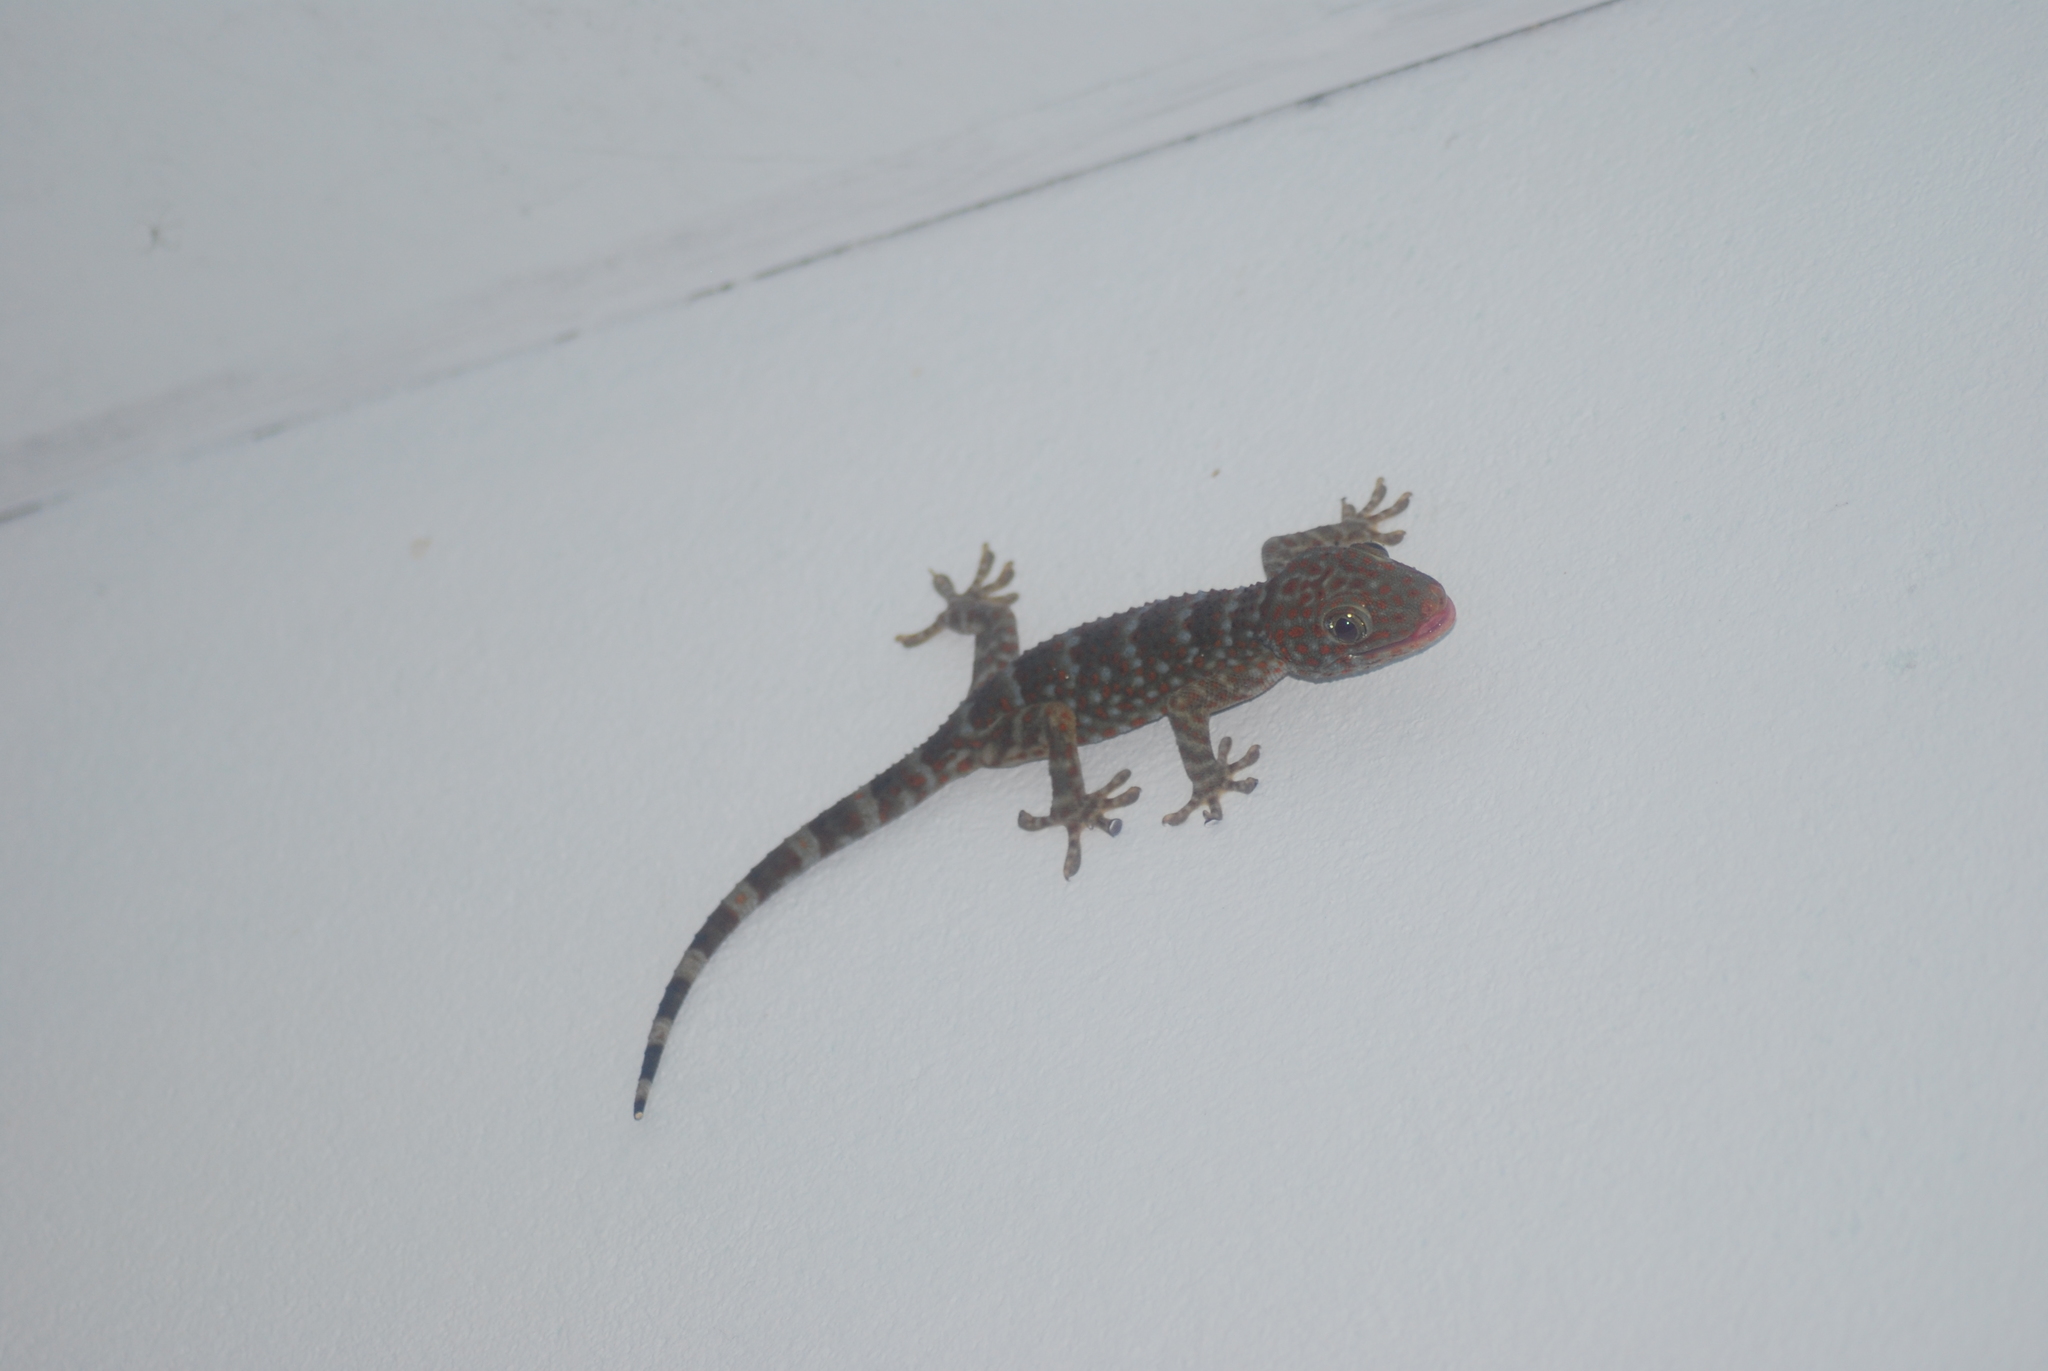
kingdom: Animalia
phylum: Chordata
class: Squamata
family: Gekkonidae
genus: Gekko
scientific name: Gekko gecko
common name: Tokay gecko
